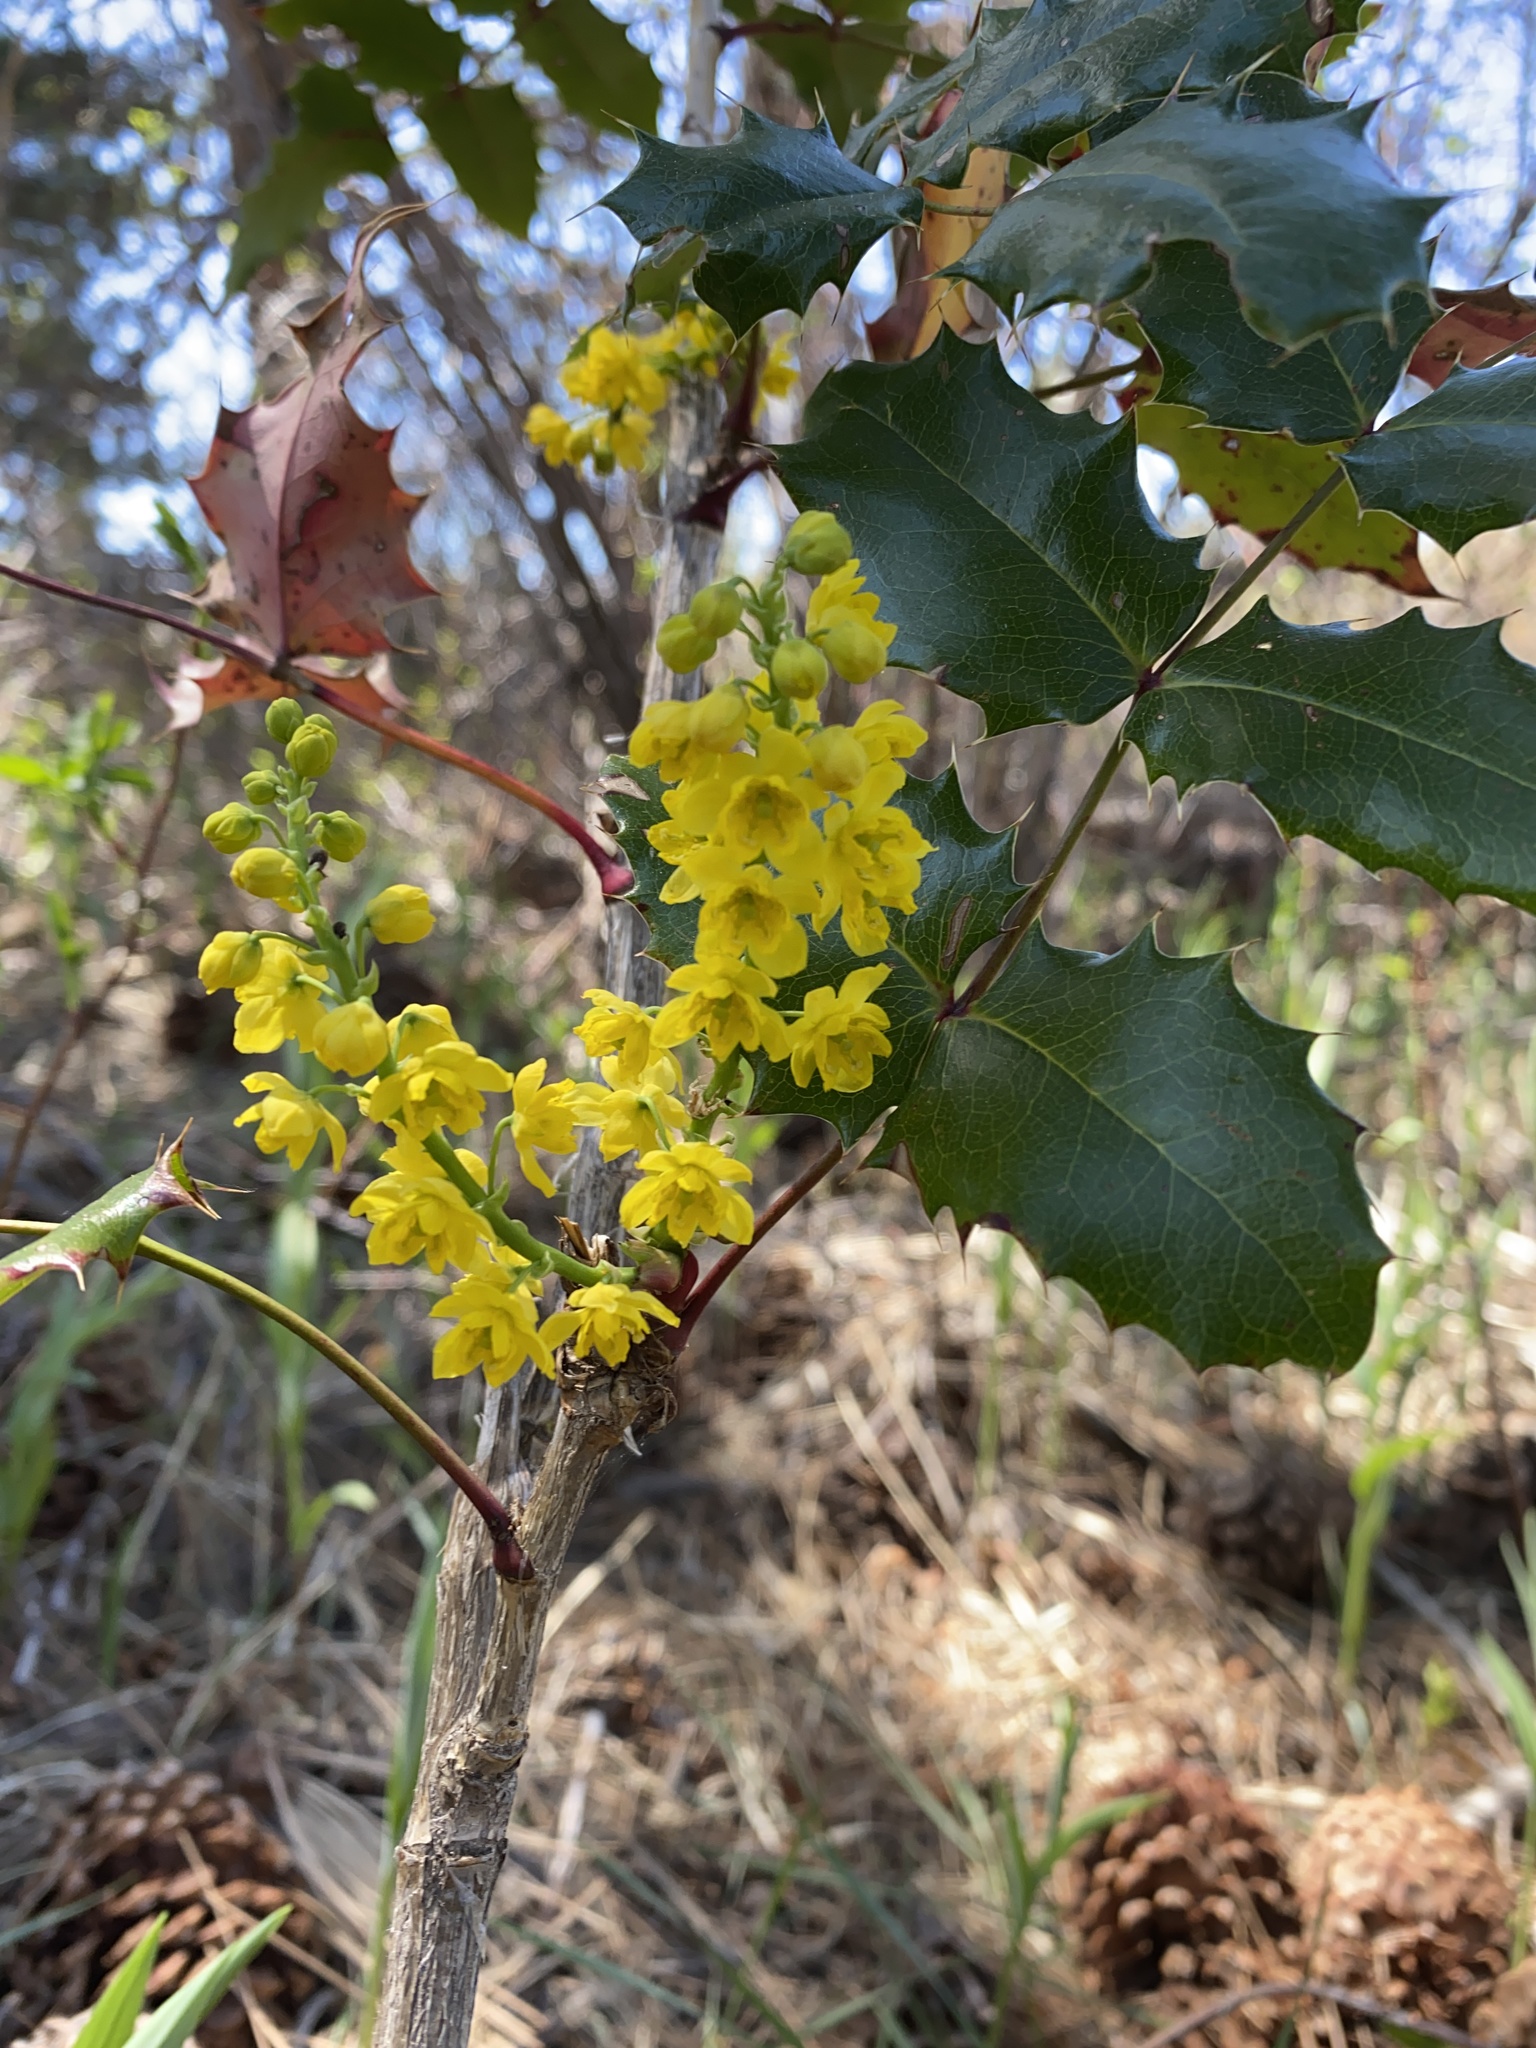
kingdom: Plantae
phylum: Tracheophyta
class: Magnoliopsida
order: Ranunculales
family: Berberidaceae
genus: Mahonia
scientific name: Mahonia aquifolium
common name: Oregon-grape
